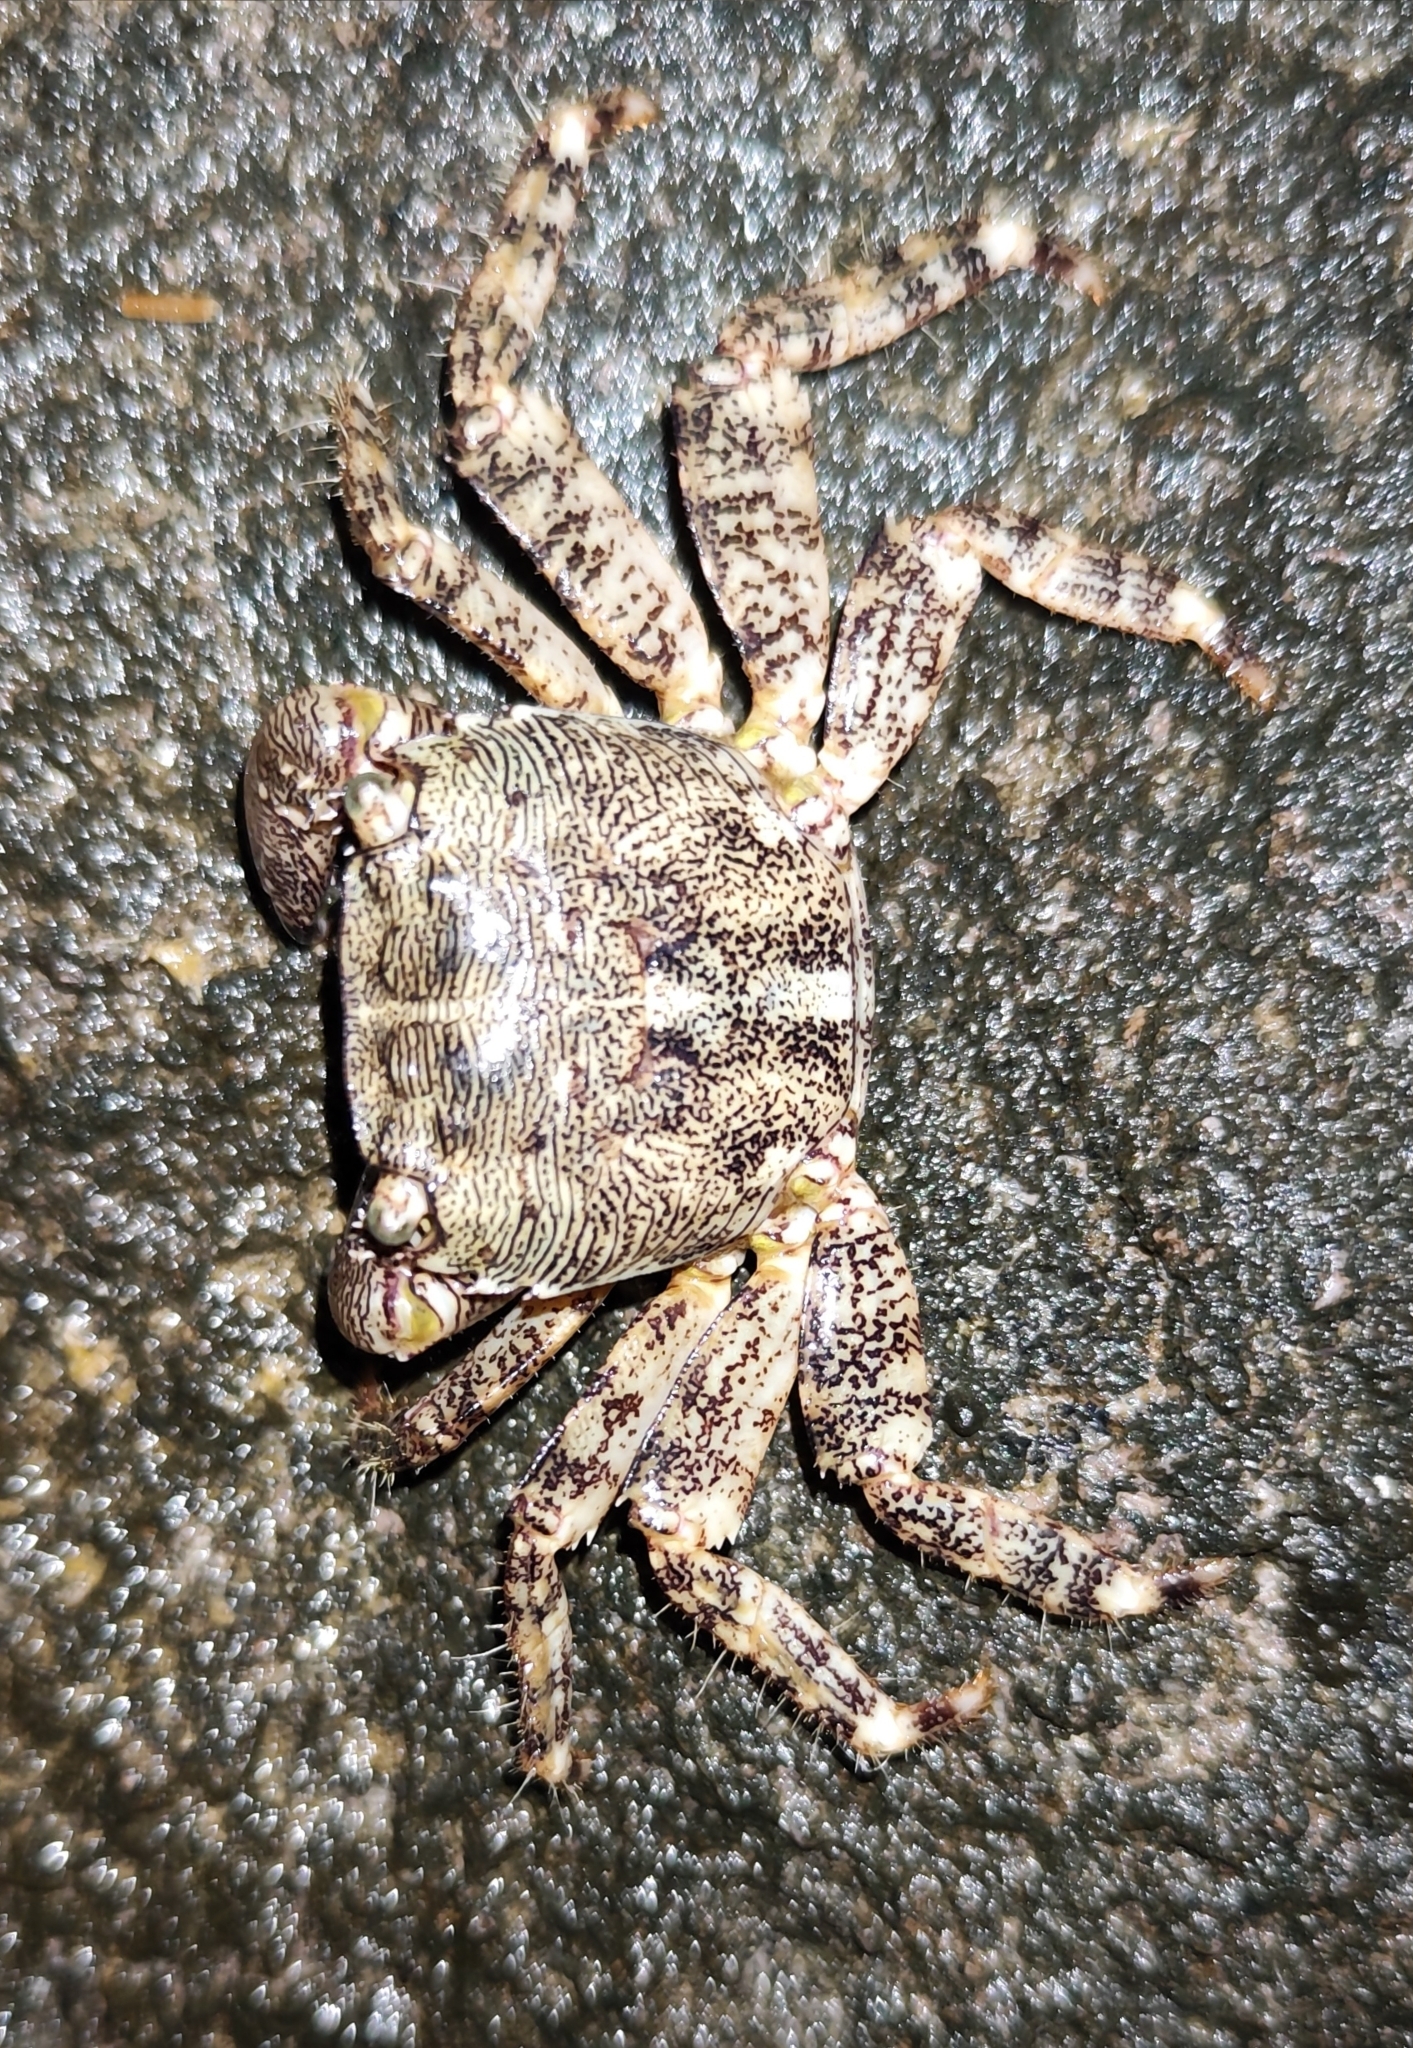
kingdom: Animalia
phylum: Arthropoda
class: Malacostraca
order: Decapoda
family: Grapsidae
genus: Pachygrapsus
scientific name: Pachygrapsus marmoratus
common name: Marbled rock crab
